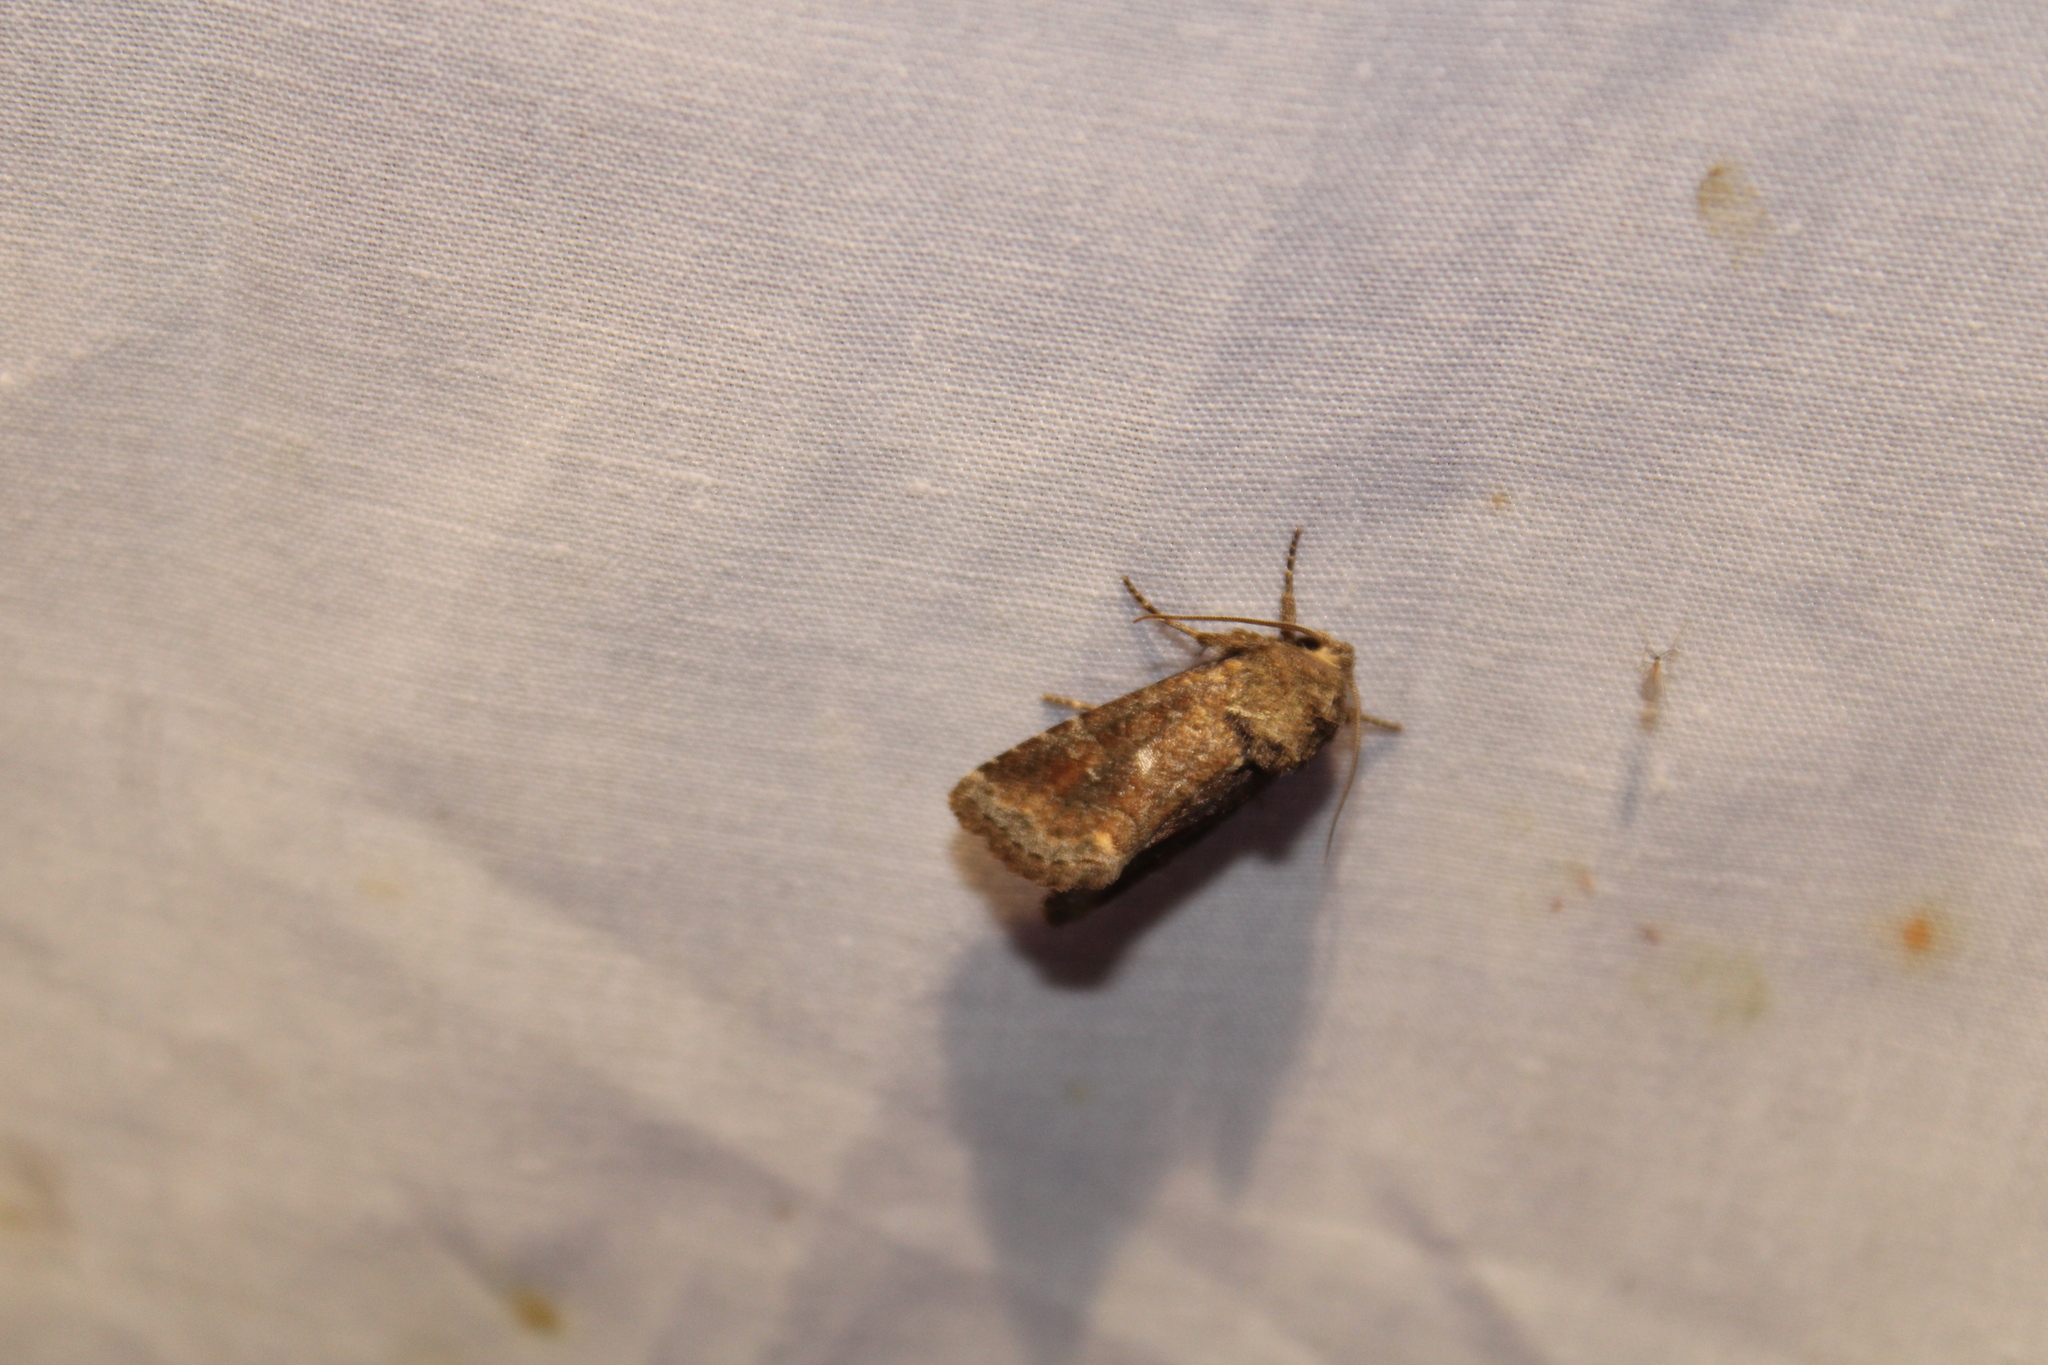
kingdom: Animalia
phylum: Arthropoda
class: Insecta
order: Lepidoptera
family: Noctuidae
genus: Lacinipolia
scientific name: Lacinipolia meditata
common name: Thinker moth
